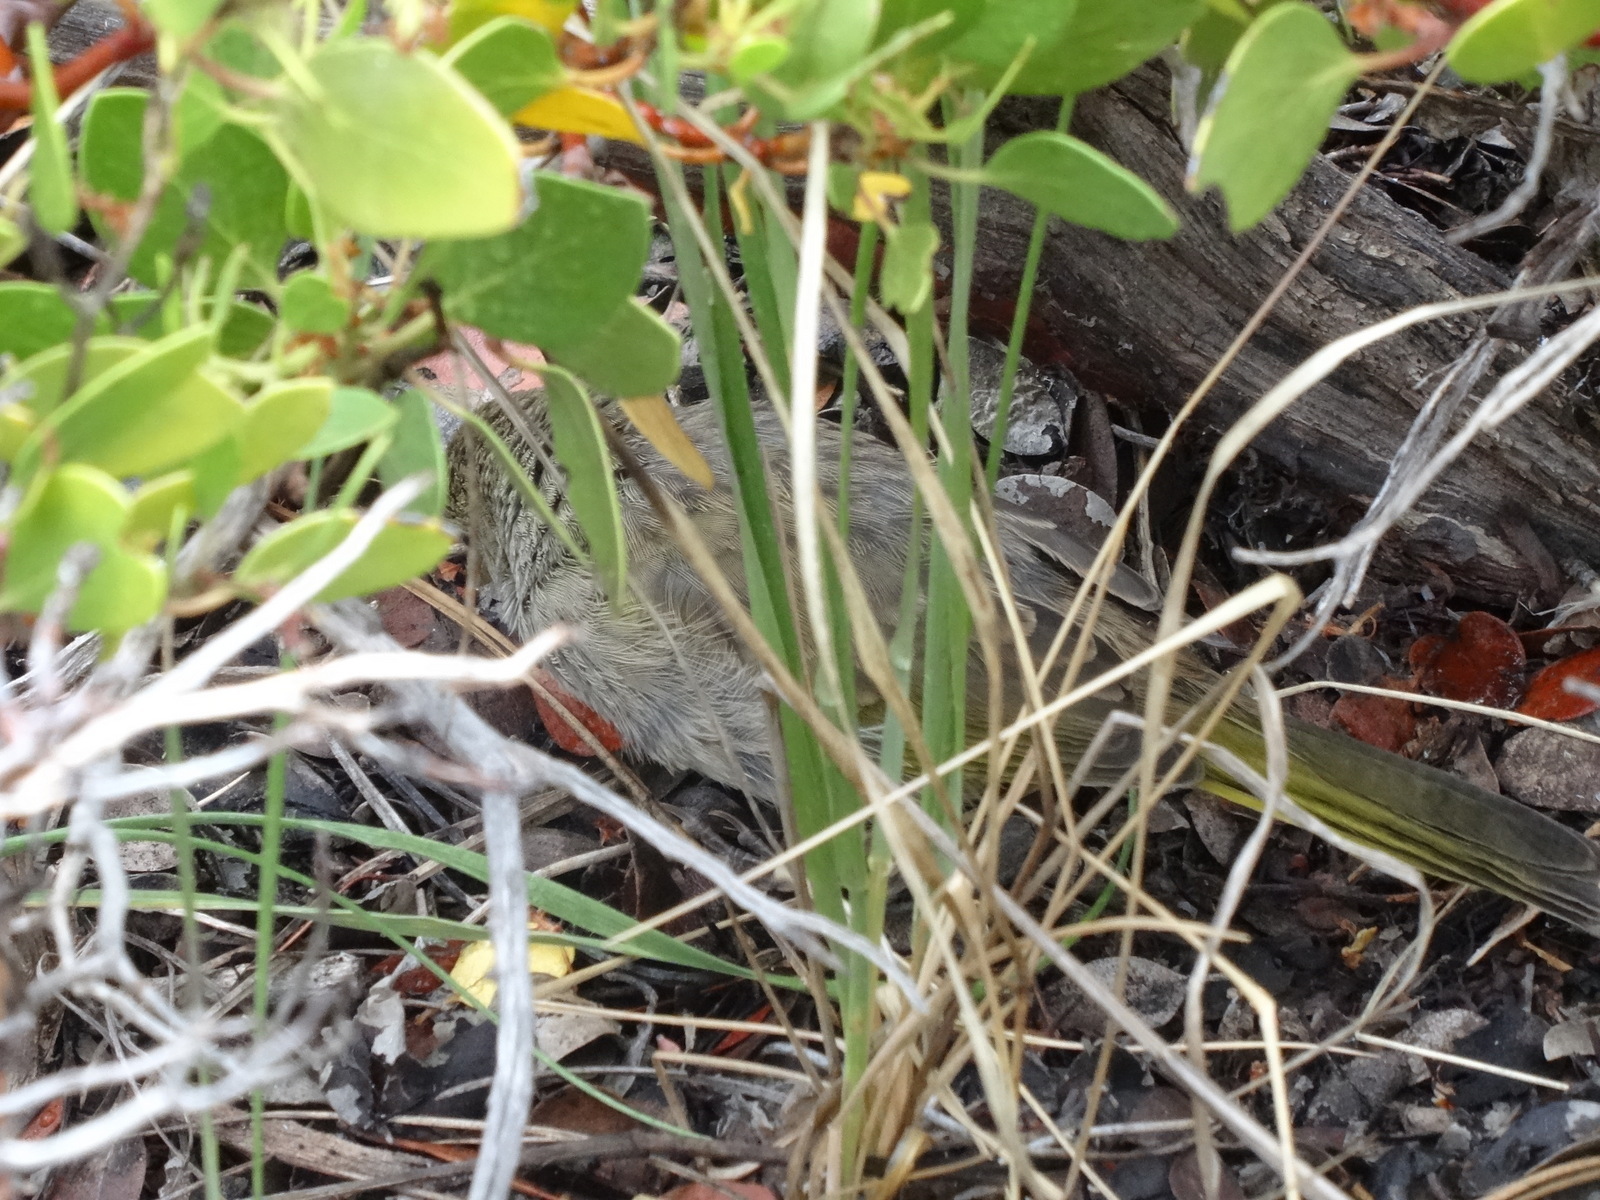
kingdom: Animalia
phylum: Chordata
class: Aves
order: Passeriformes
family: Passerellidae
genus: Pipilo
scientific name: Pipilo chlorurus
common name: Green-tailed towhee
